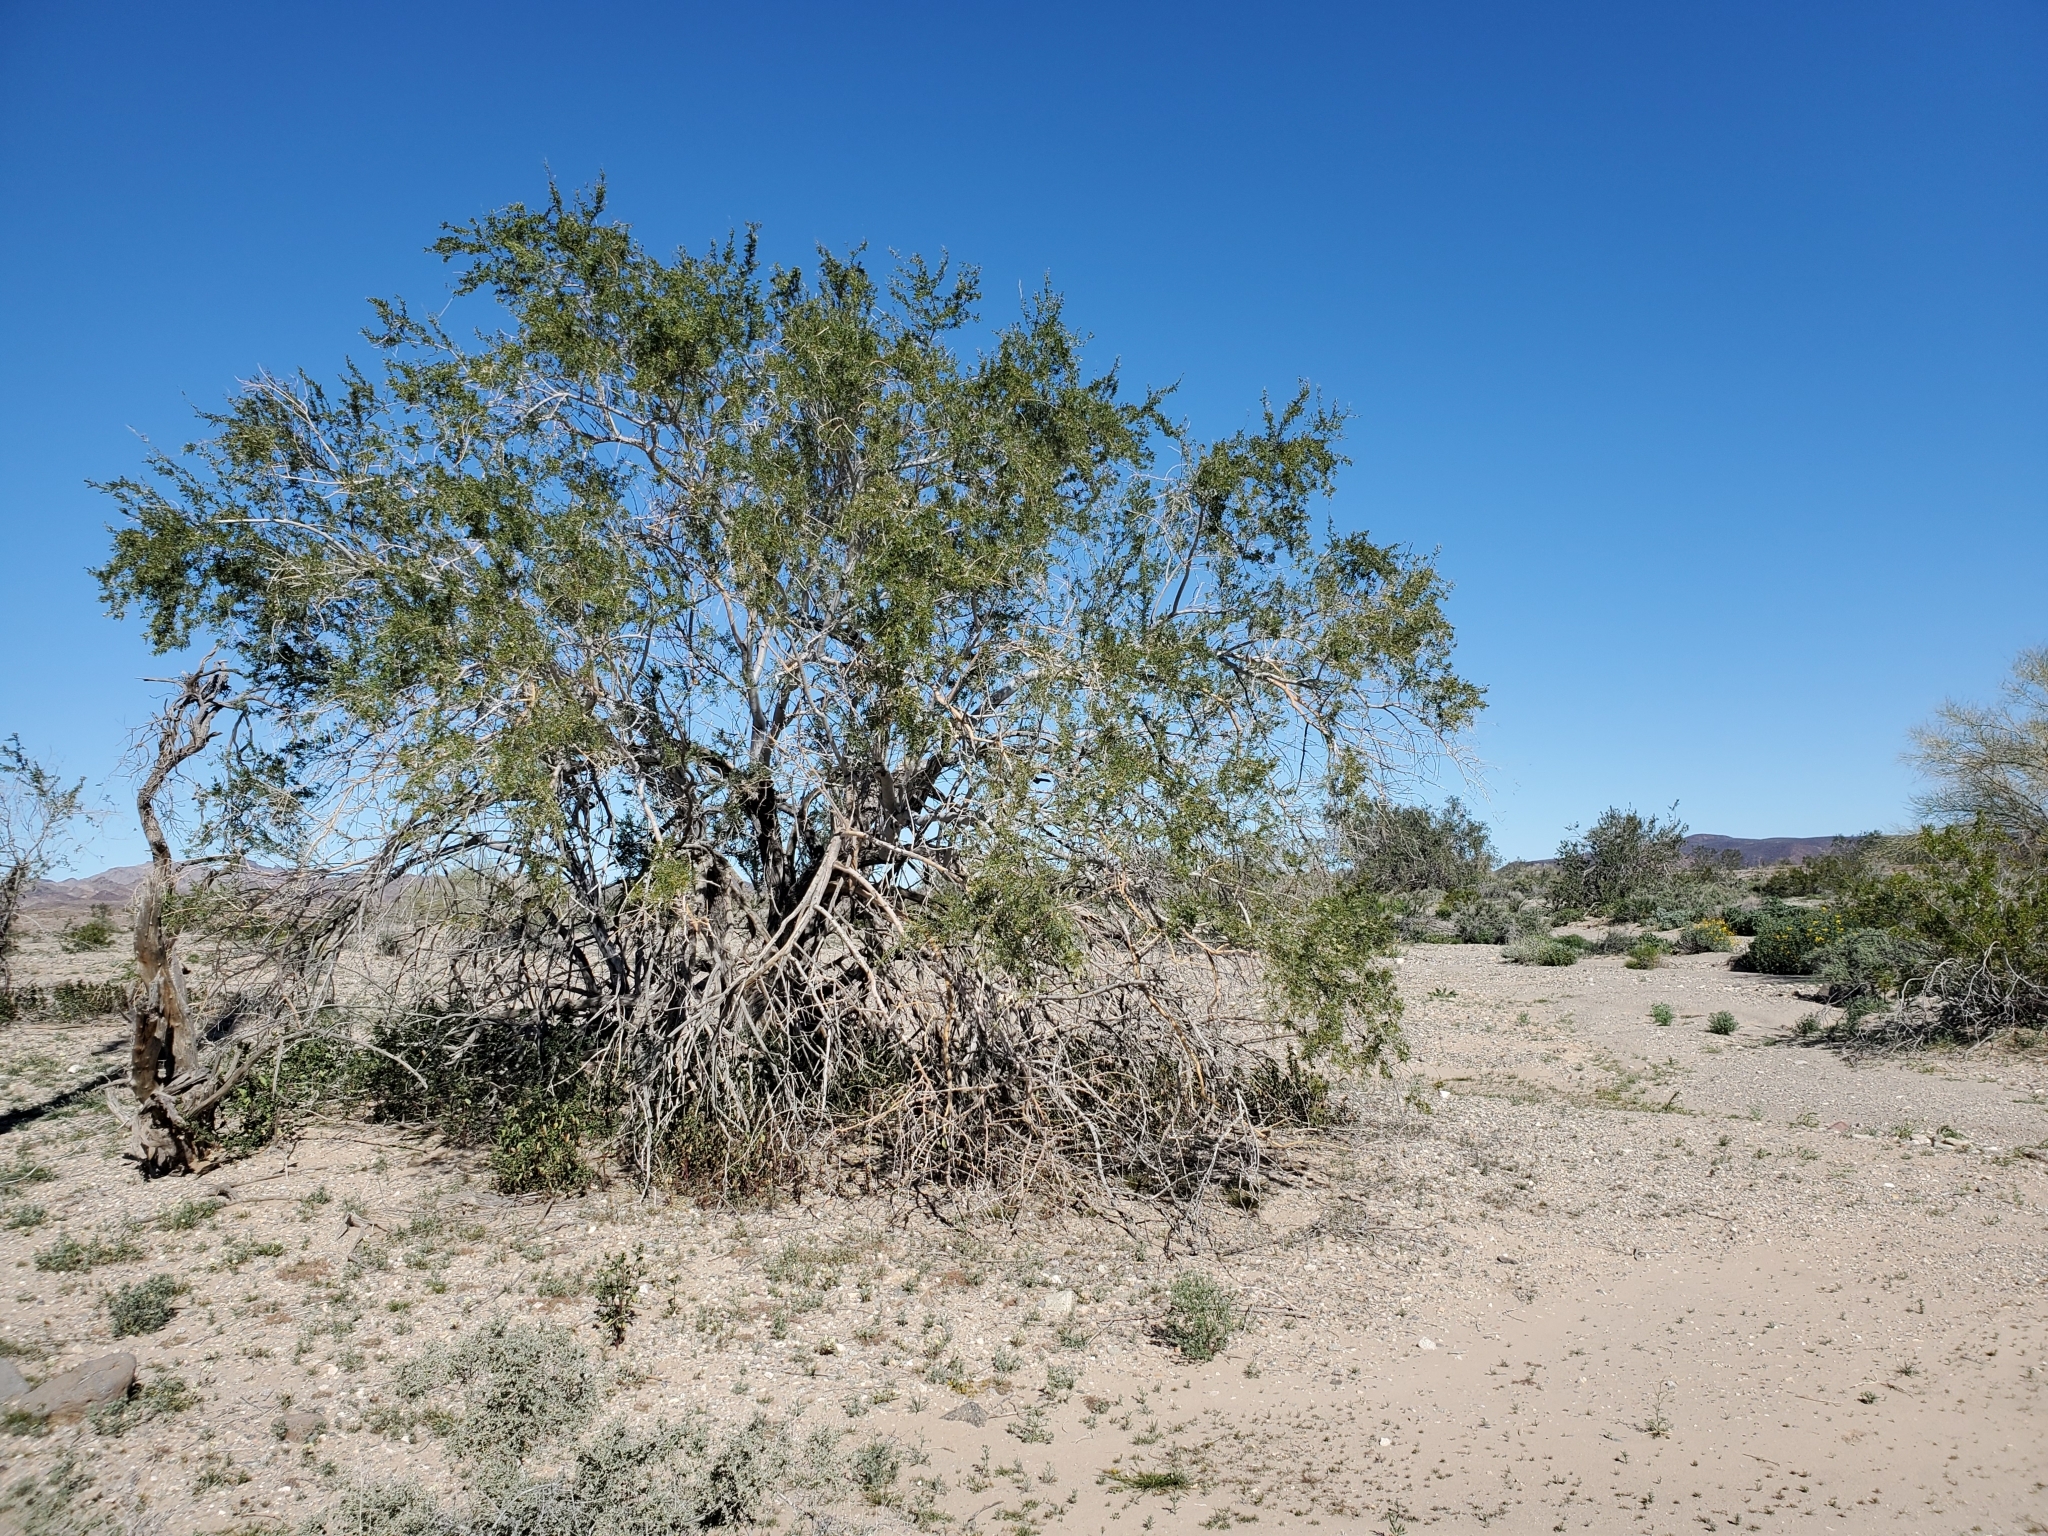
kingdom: Plantae
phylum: Tracheophyta
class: Magnoliopsida
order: Fabales
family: Fabaceae
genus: Olneya
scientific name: Olneya tesota
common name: Desert ironwood
